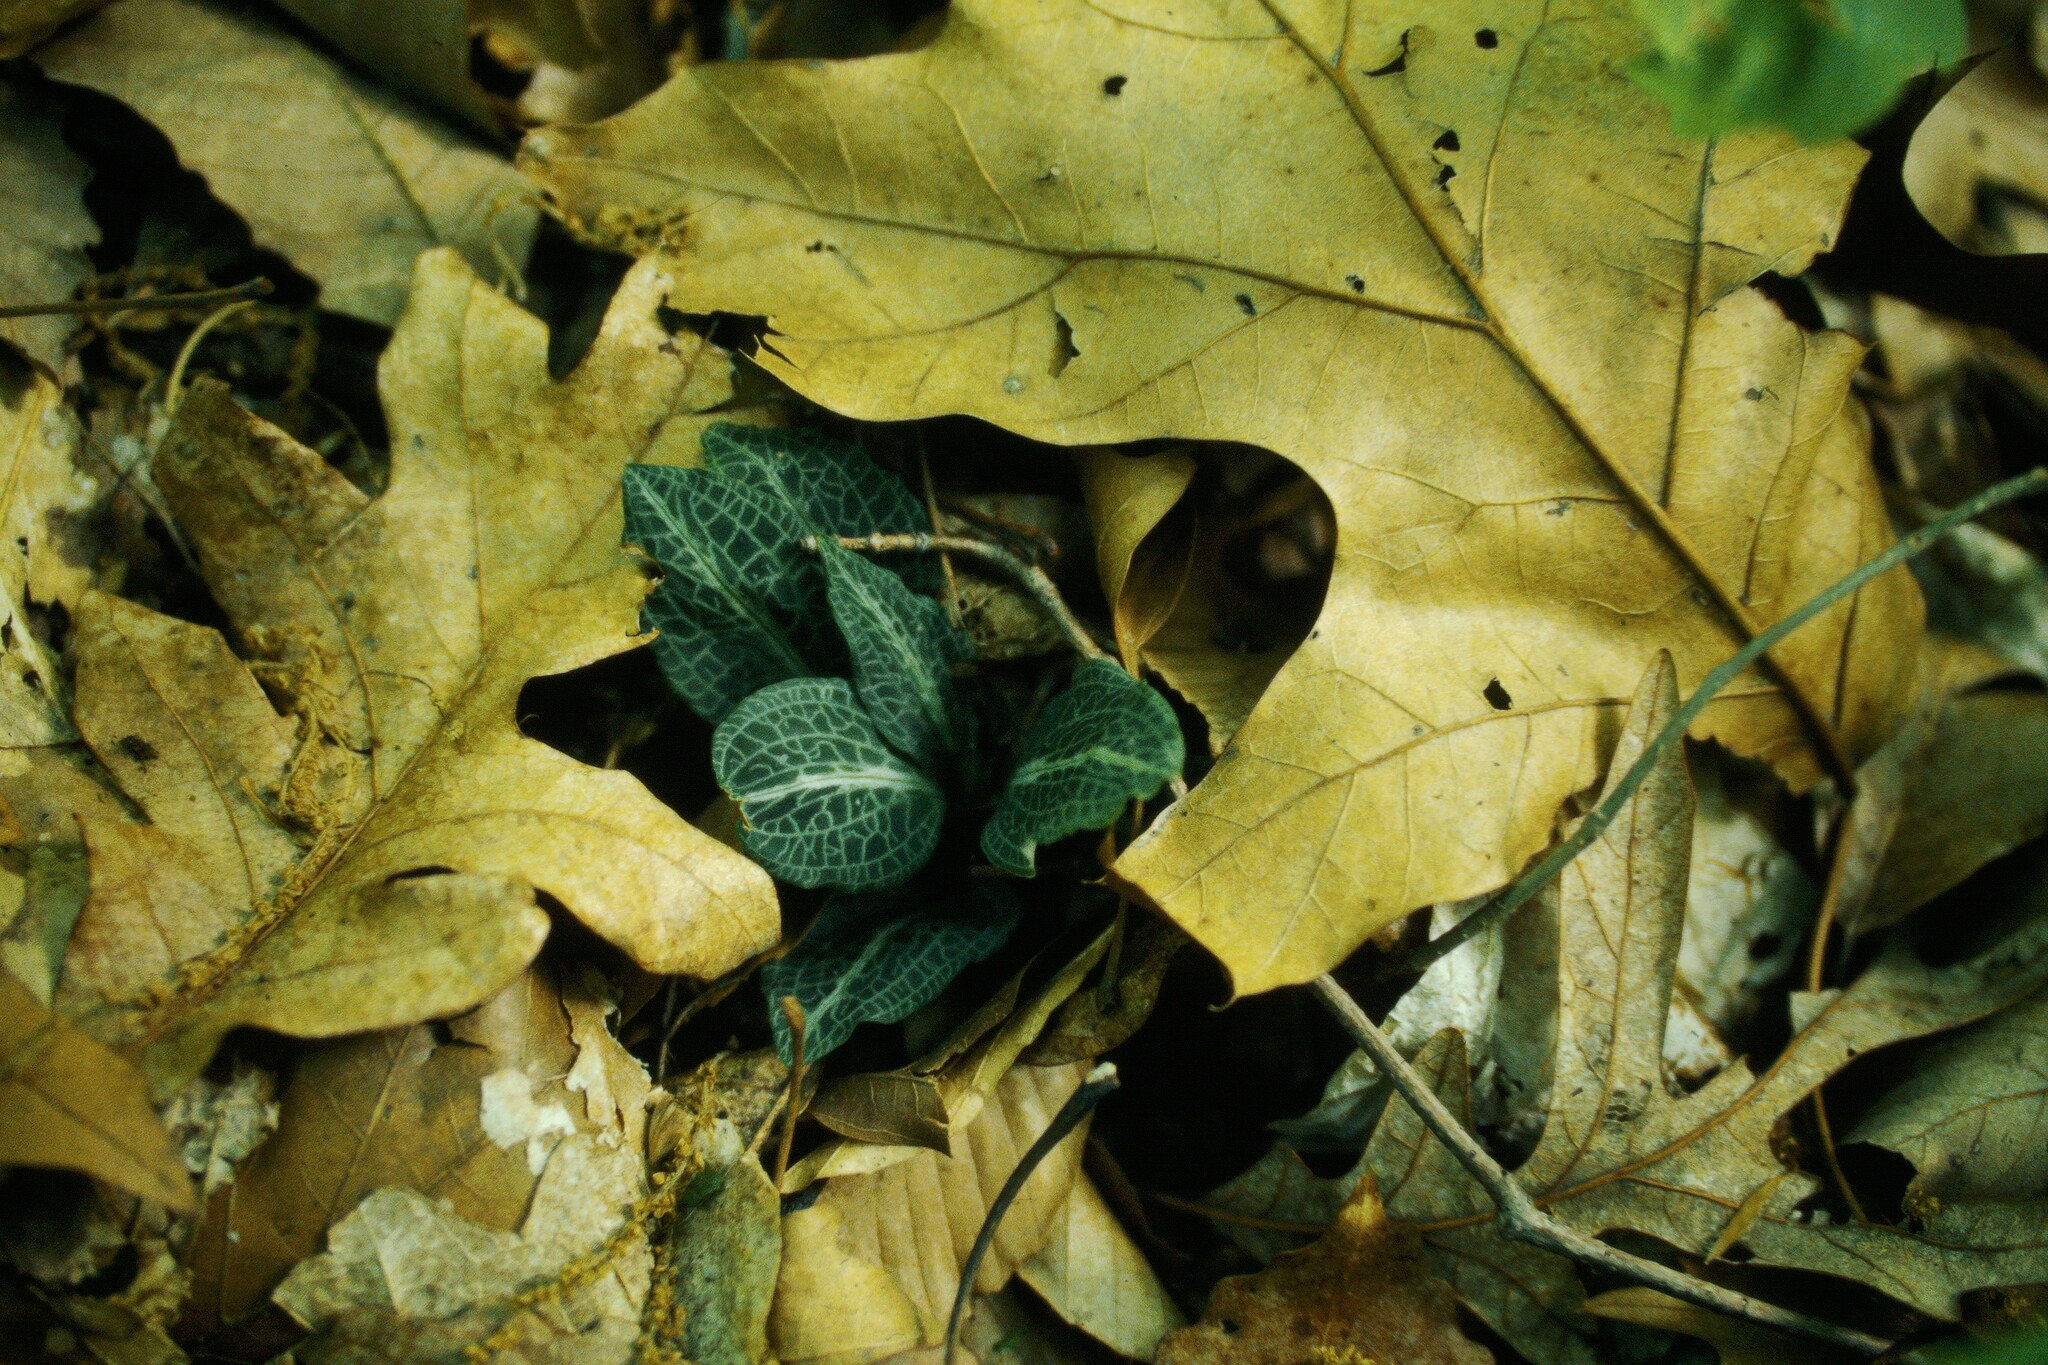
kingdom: Plantae
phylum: Tracheophyta
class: Liliopsida
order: Asparagales
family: Orchidaceae
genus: Goodyera
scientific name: Goodyera pubescens
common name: Downy rattlesnake-plantain
